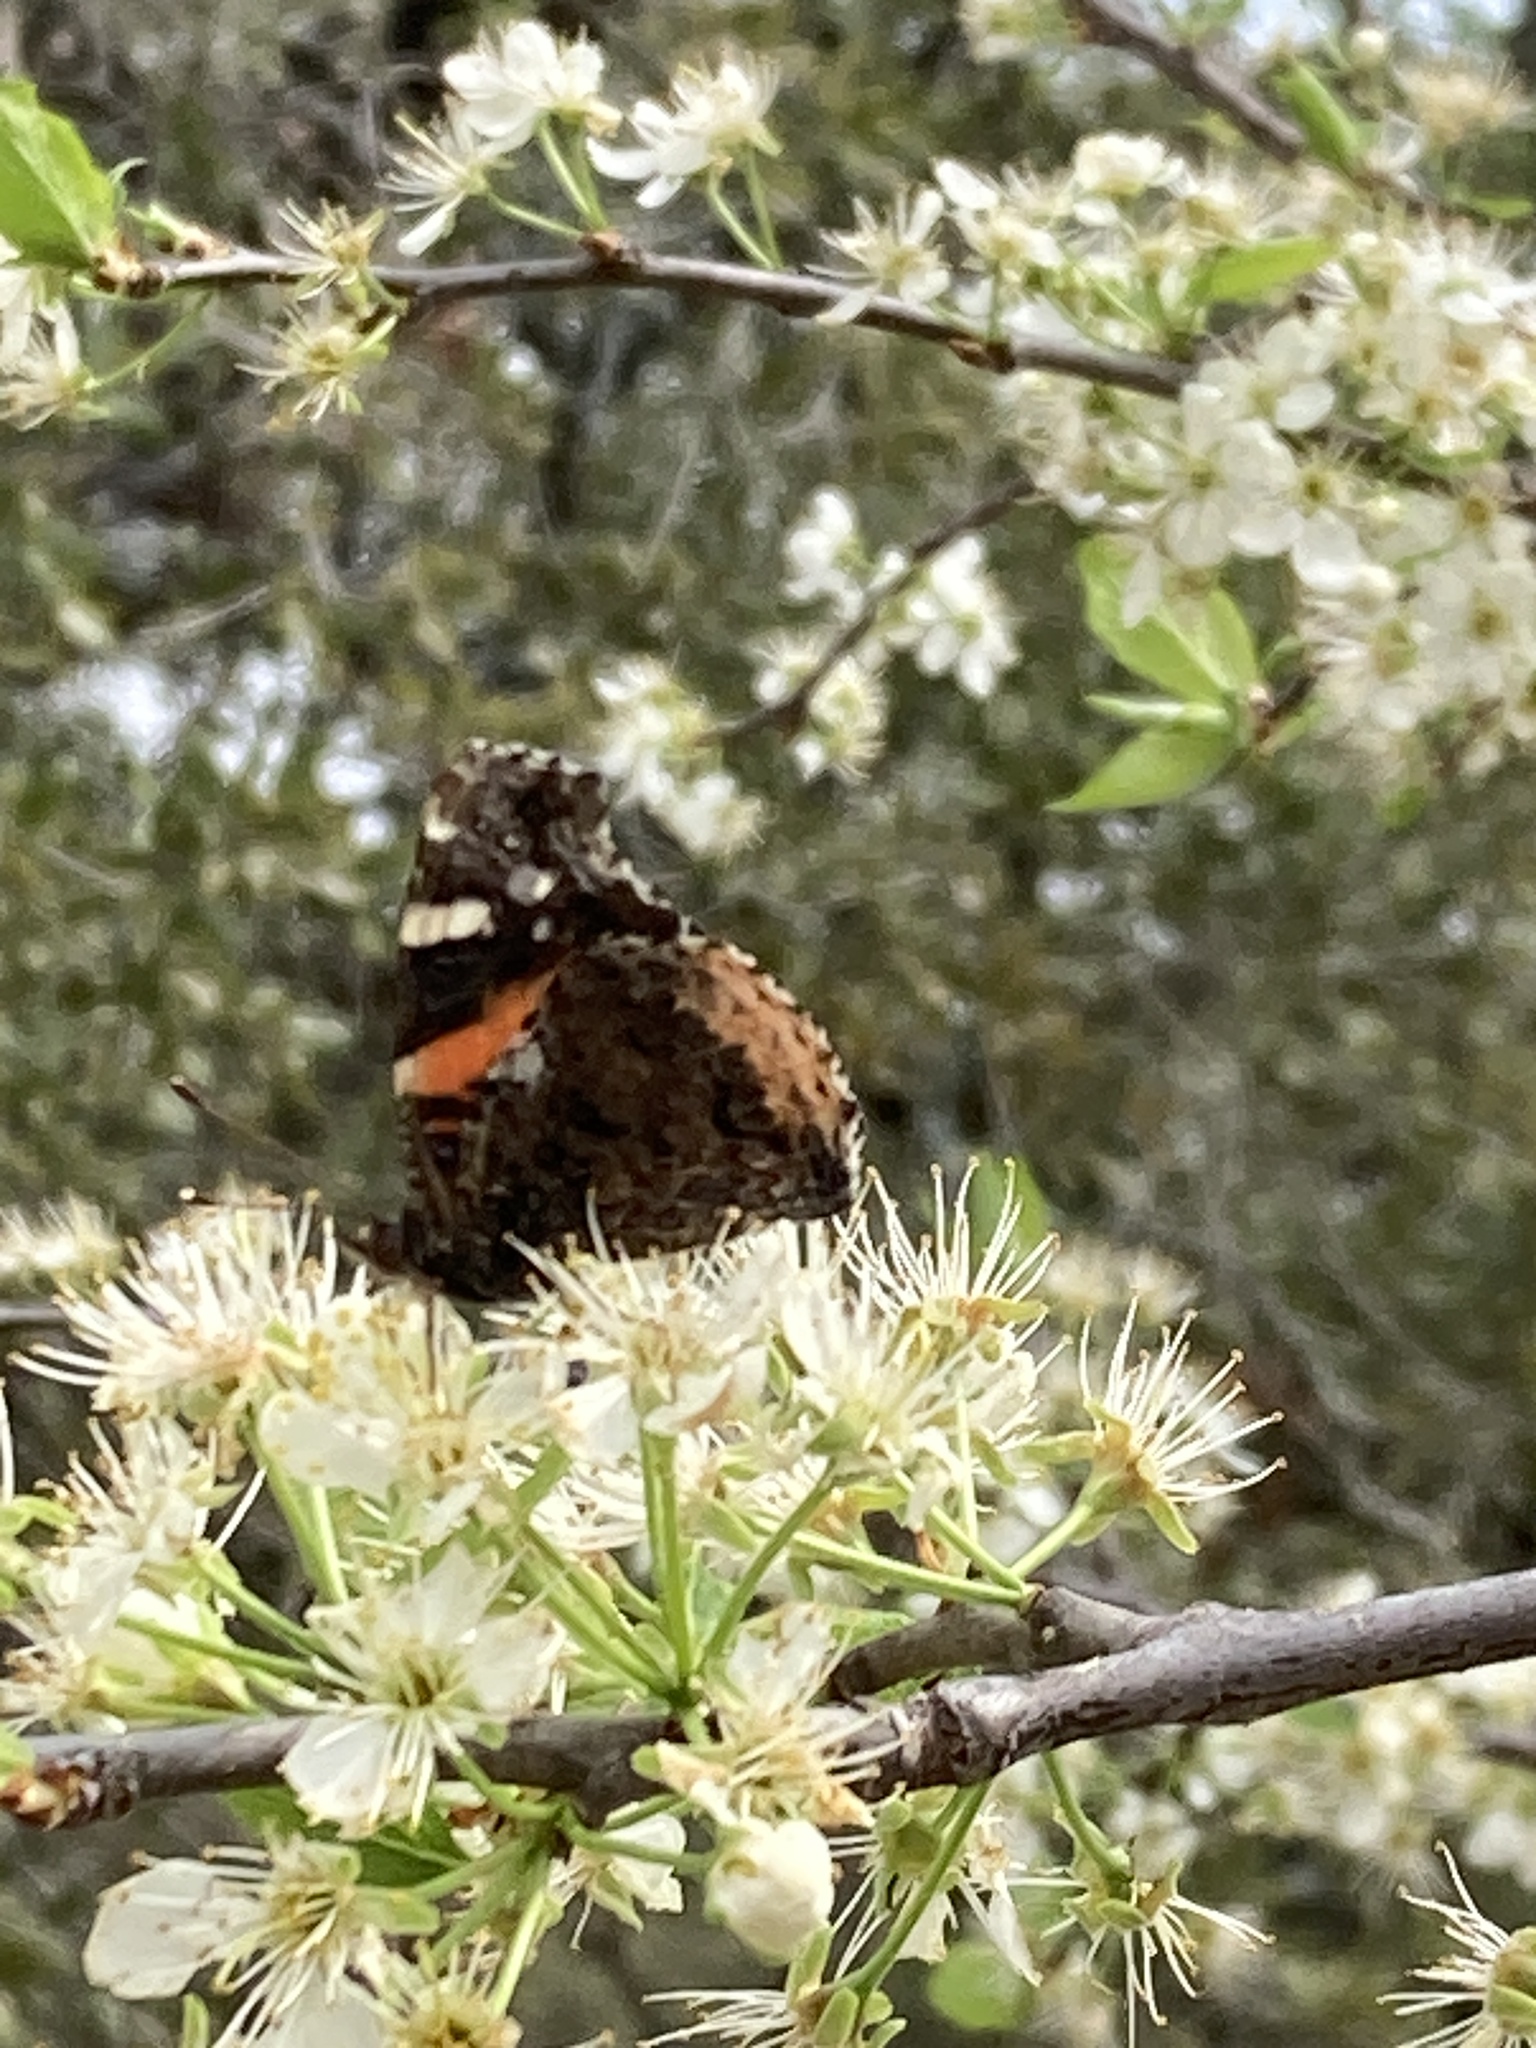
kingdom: Animalia
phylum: Arthropoda
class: Insecta
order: Lepidoptera
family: Nymphalidae
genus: Vanessa
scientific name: Vanessa atalanta
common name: Red admiral
